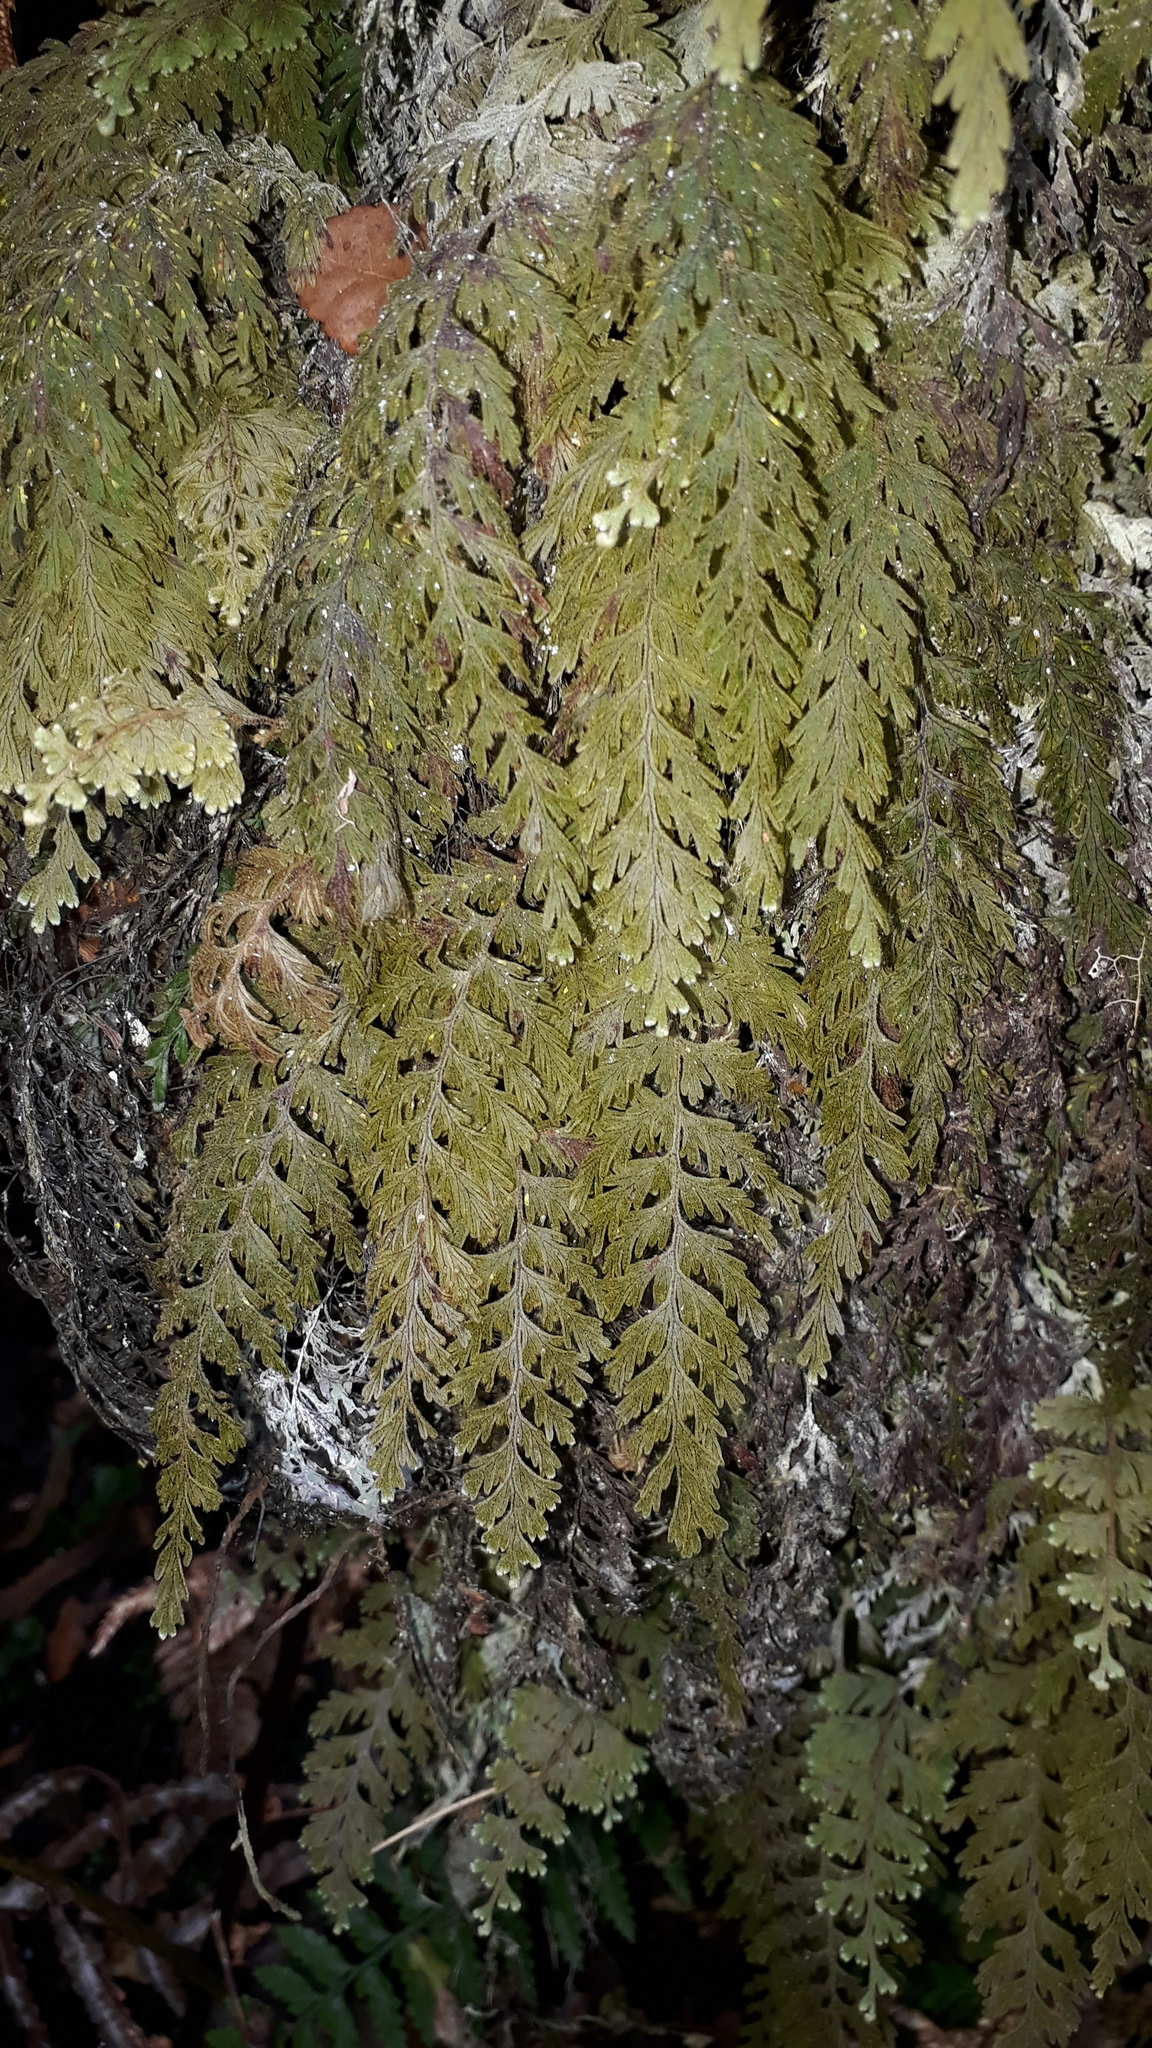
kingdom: Plantae
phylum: Tracheophyta
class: Polypodiopsida
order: Hymenophyllales
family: Hymenophyllaceae
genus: Hymenophyllum
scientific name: Hymenophyllum frankliniae
